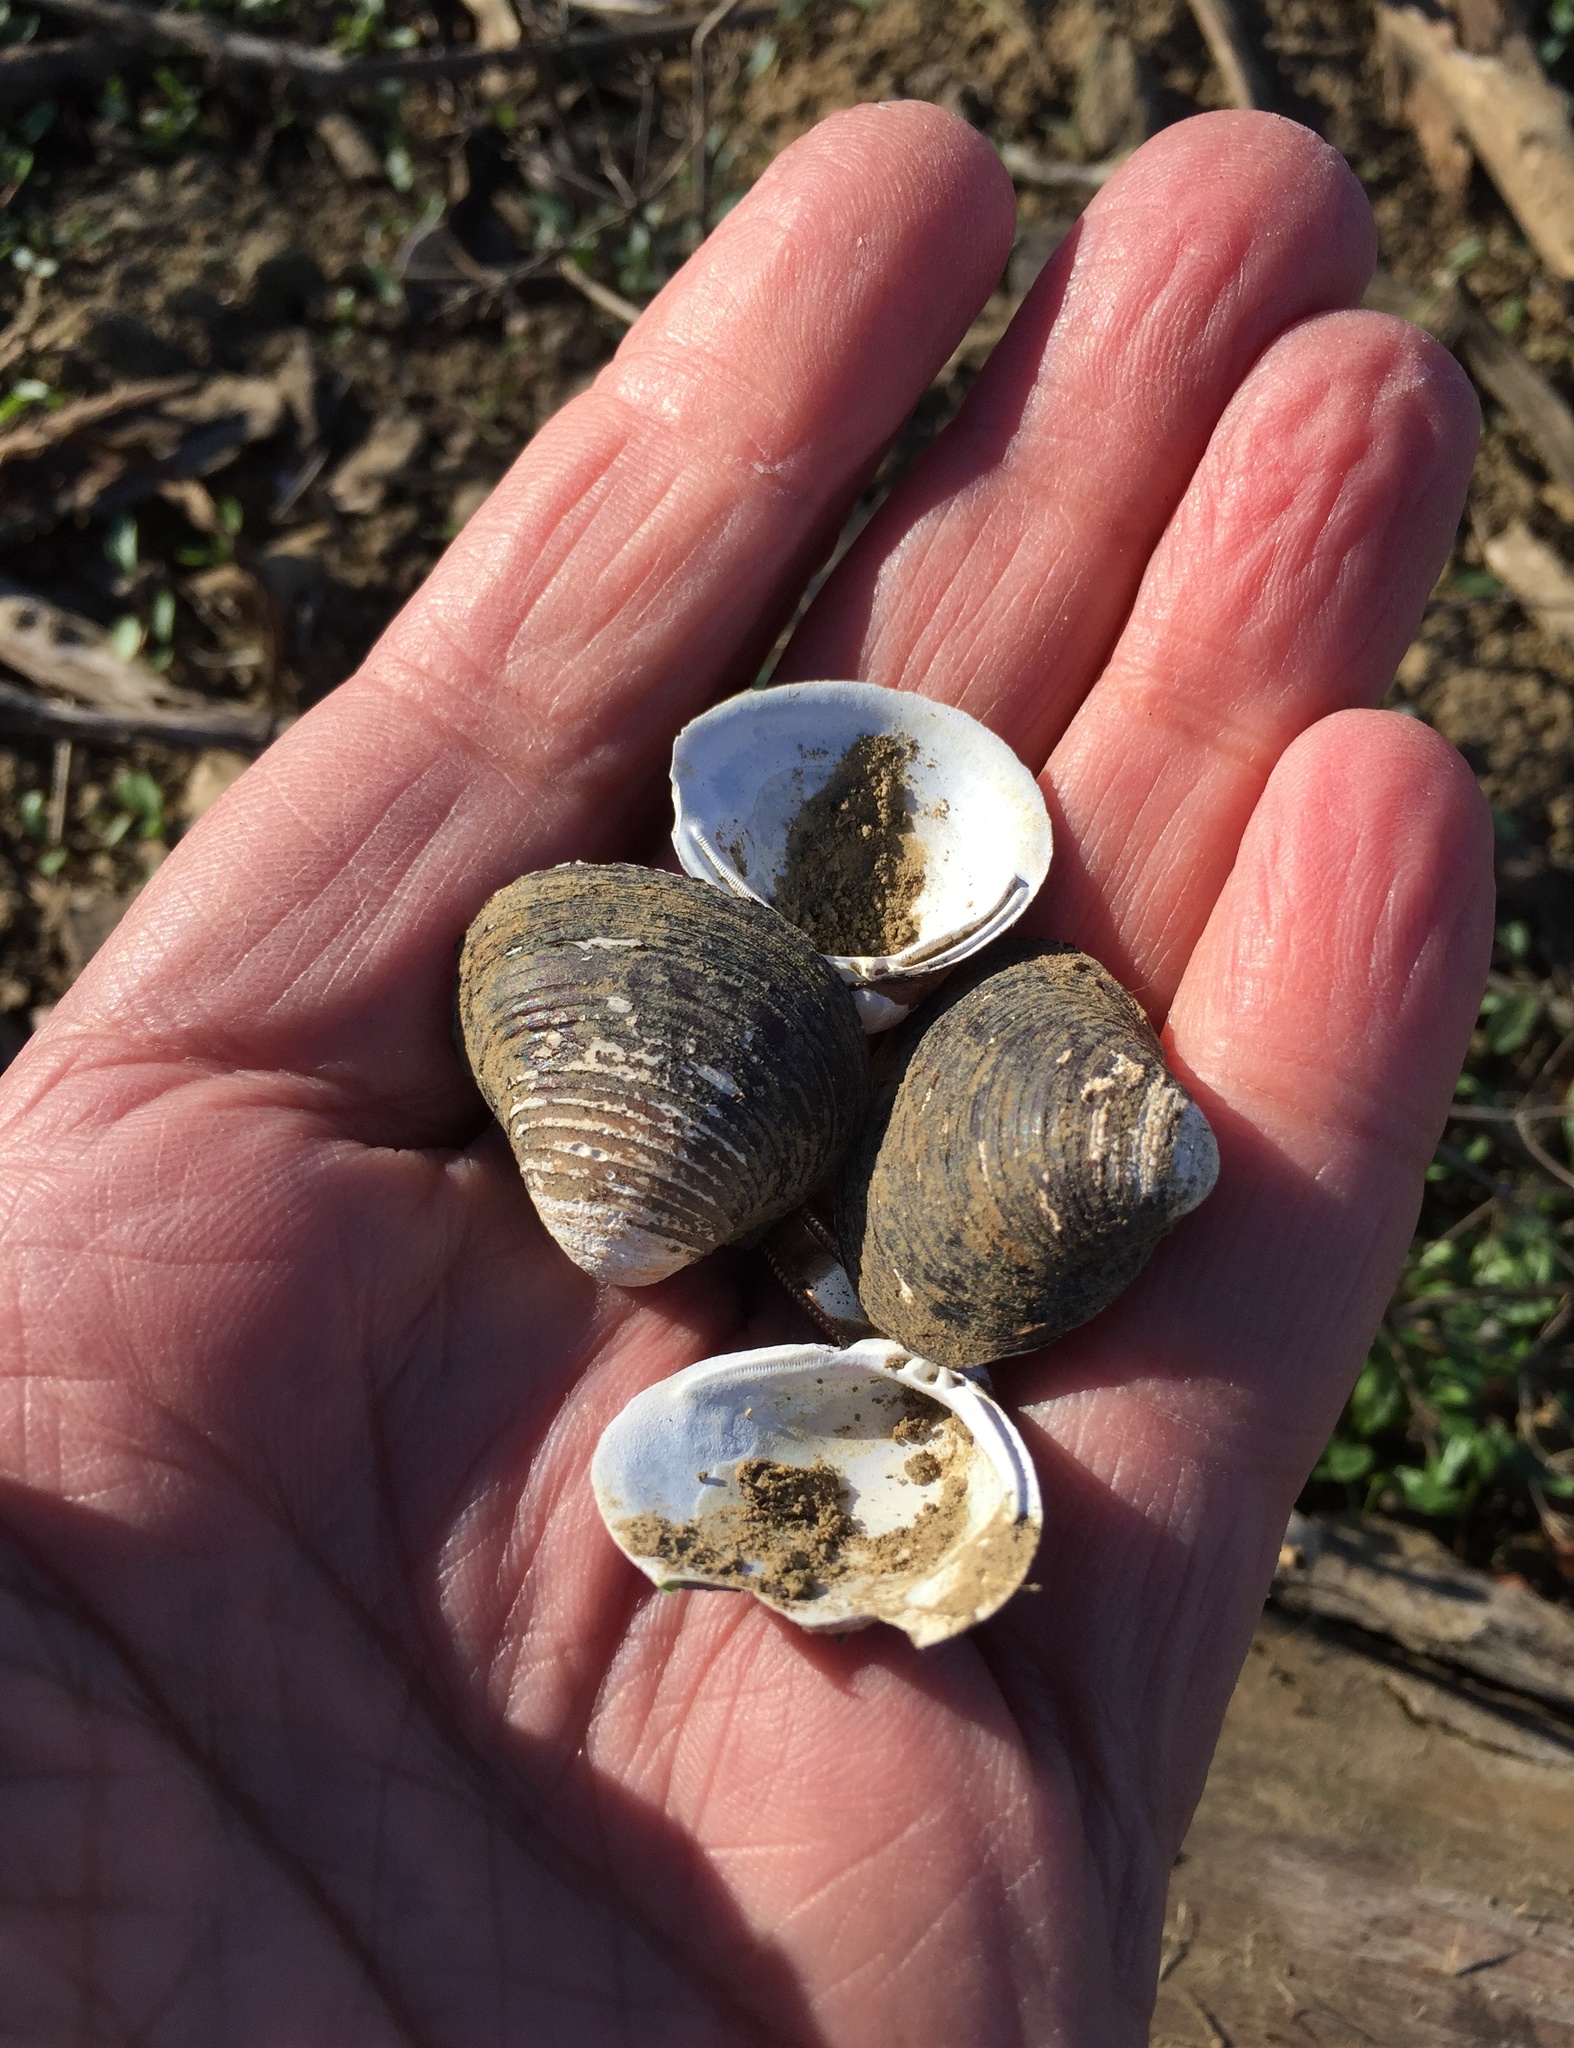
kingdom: Animalia
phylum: Mollusca
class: Bivalvia
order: Venerida
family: Cyrenidae
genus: Corbicula
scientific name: Corbicula fluminea
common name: Asian clam
